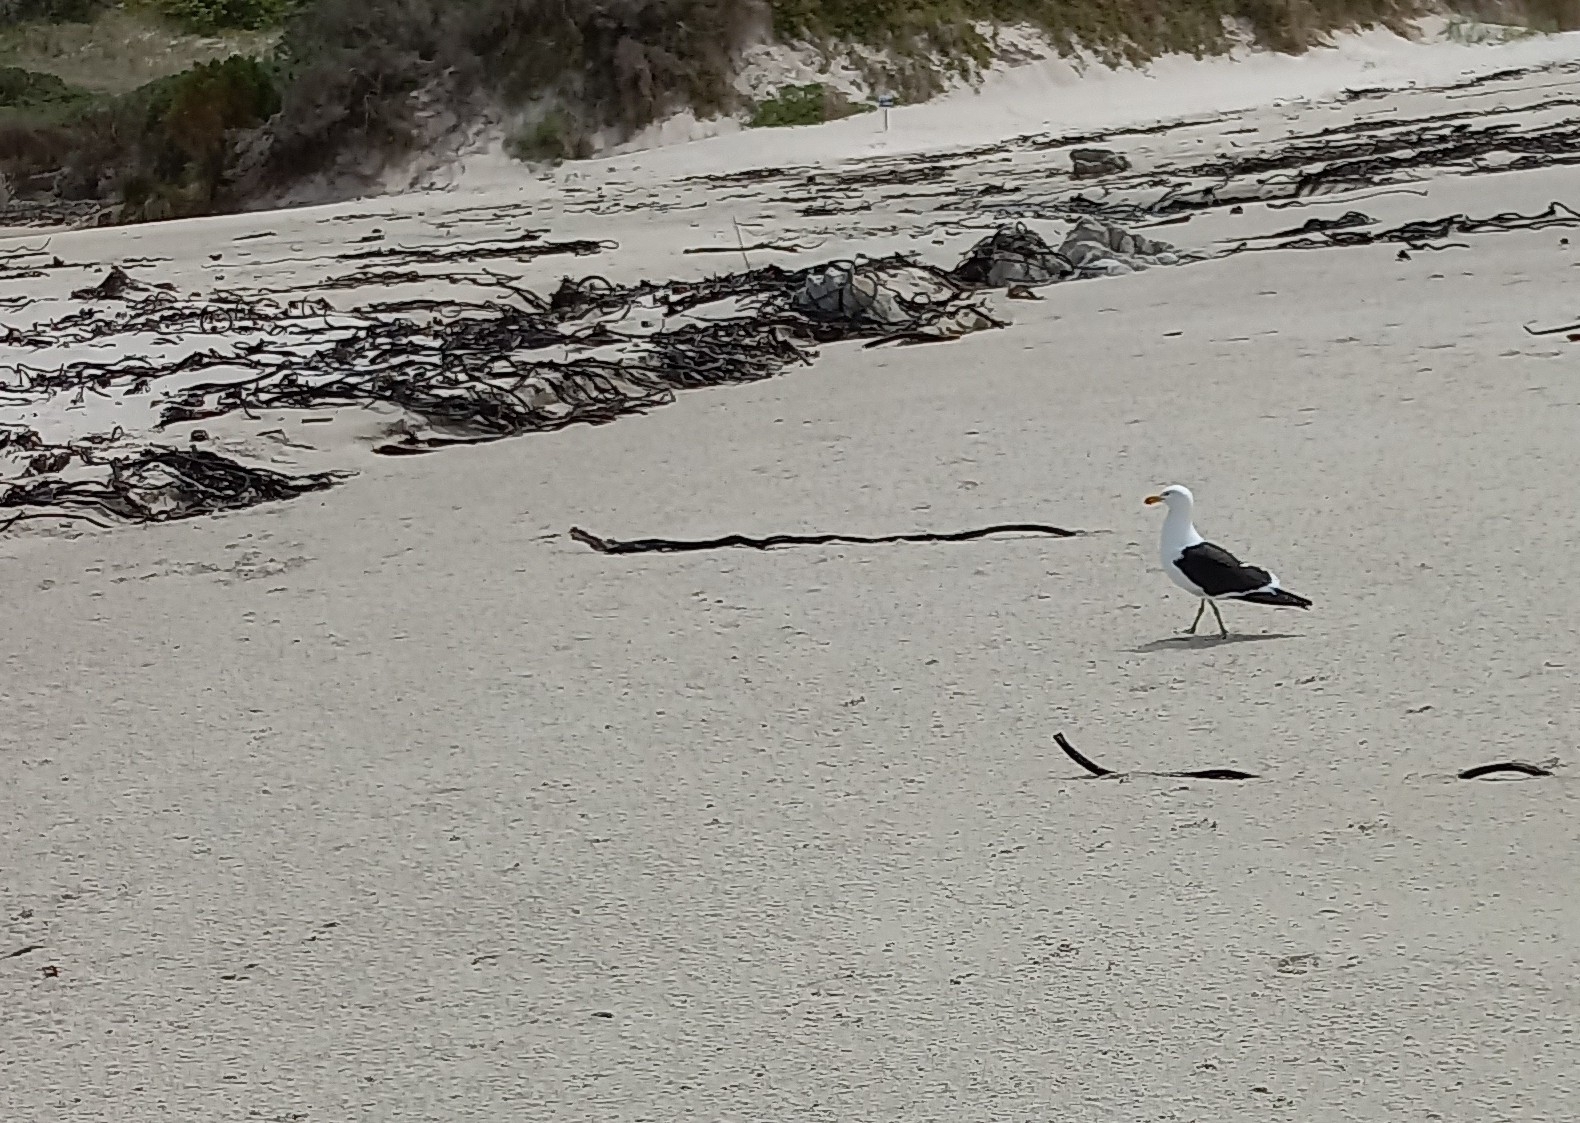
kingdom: Animalia
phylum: Chordata
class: Aves
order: Charadriiformes
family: Laridae
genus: Larus
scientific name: Larus dominicanus
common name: Kelp gull
